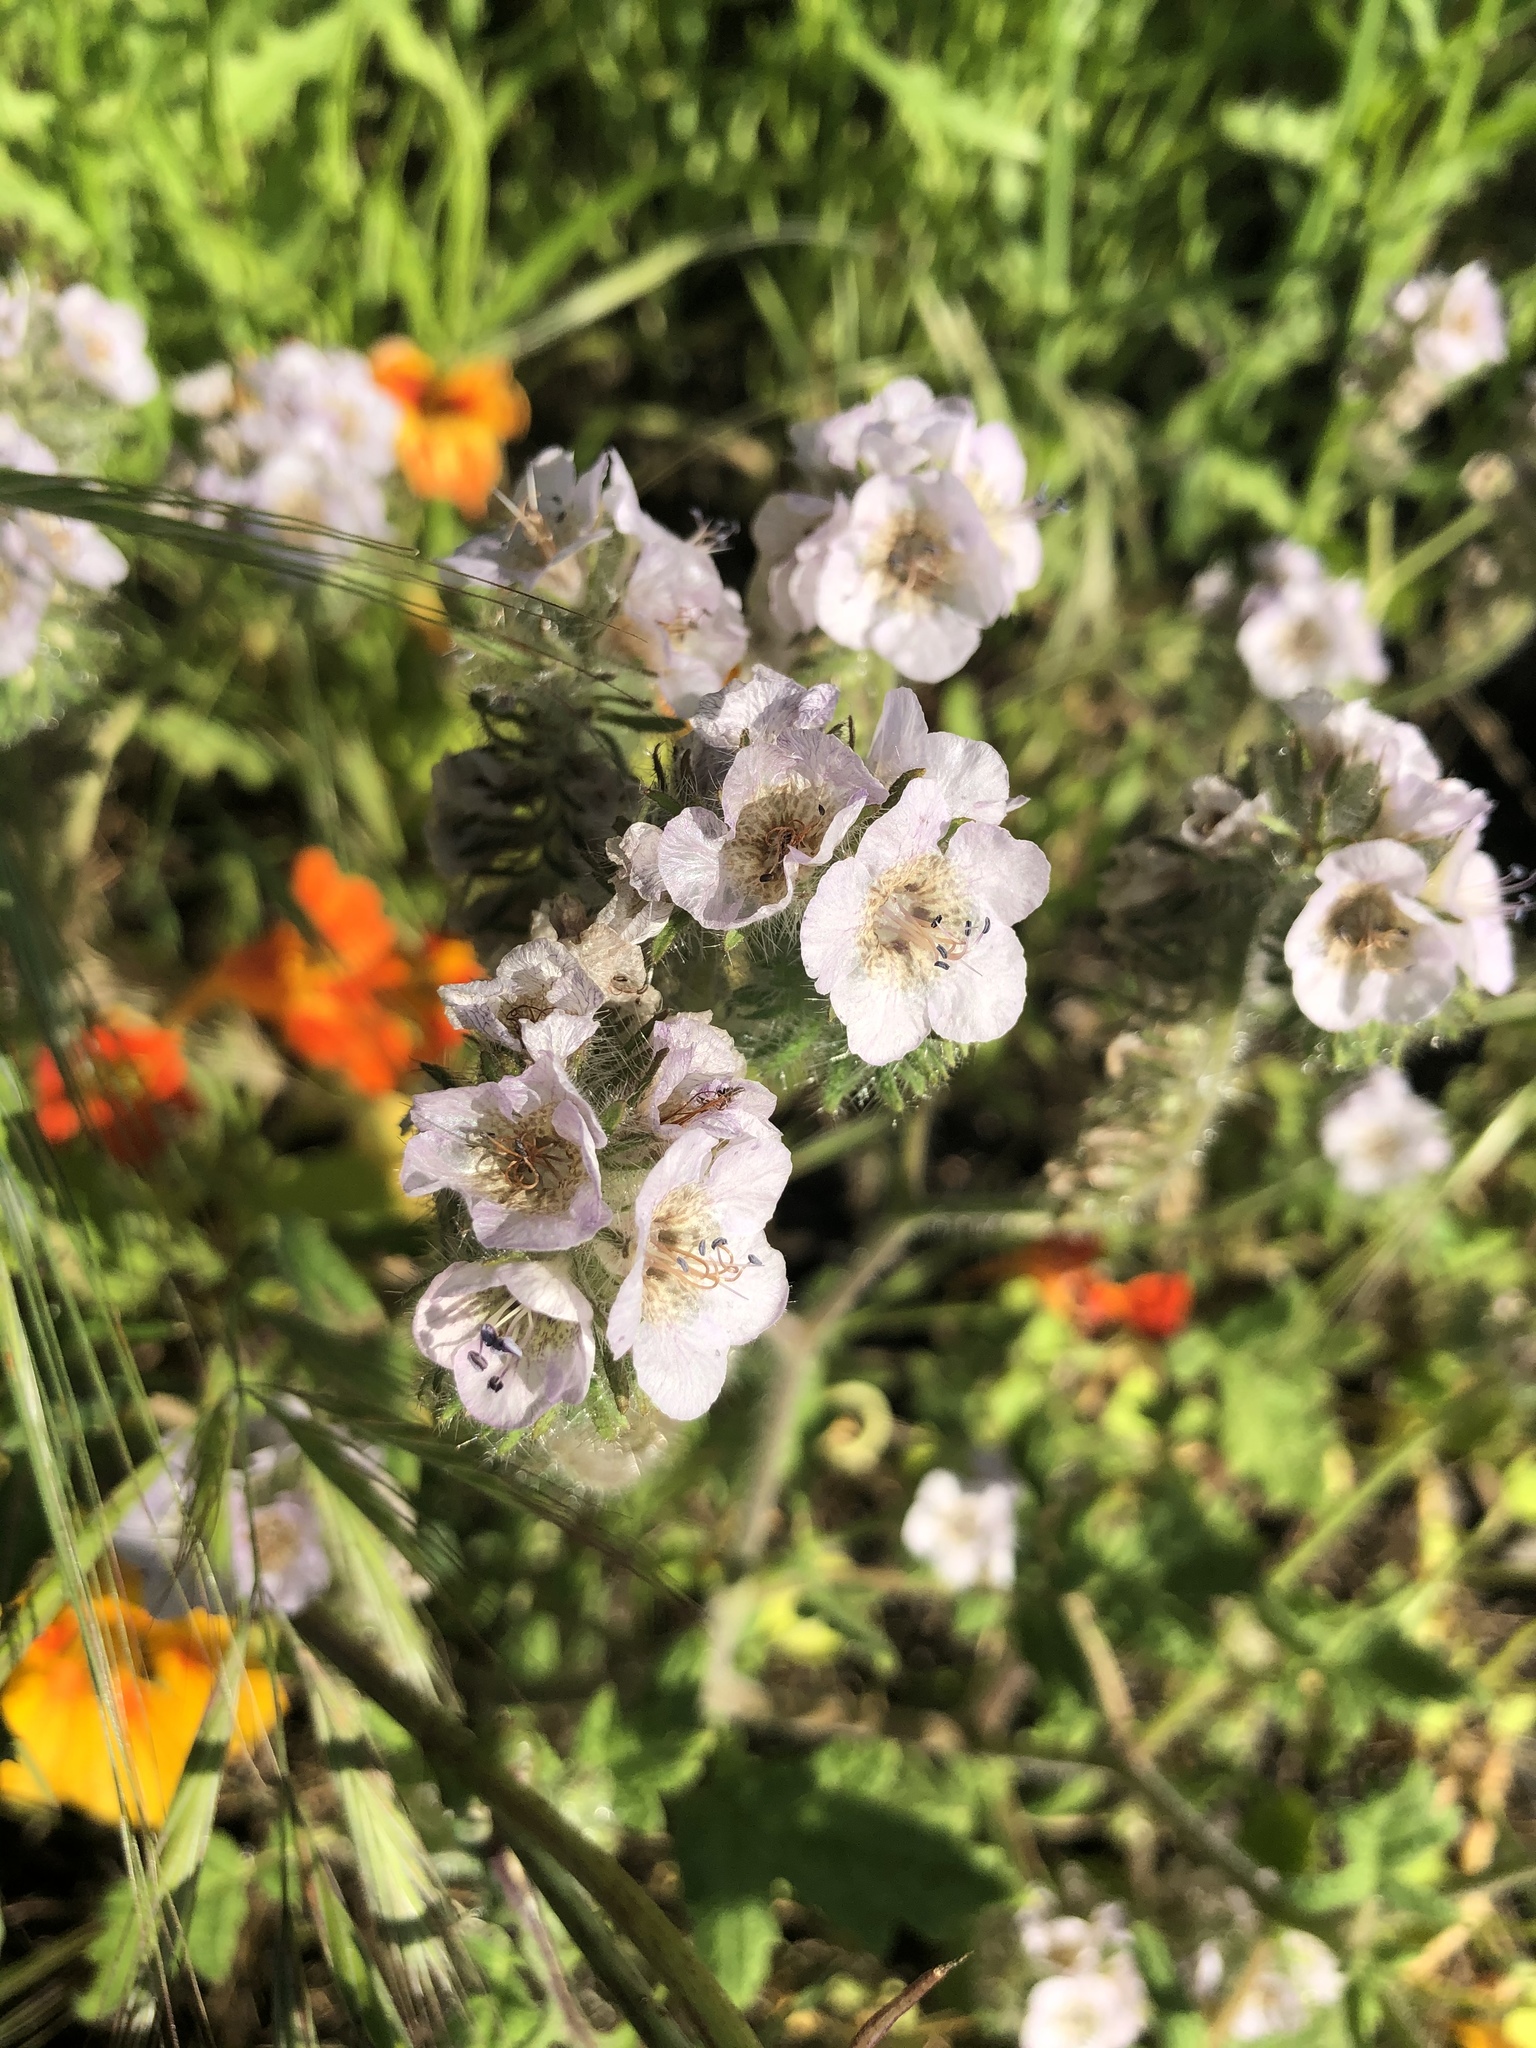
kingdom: Plantae
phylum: Tracheophyta
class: Magnoliopsida
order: Boraginales
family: Hydrophyllaceae
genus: Phacelia
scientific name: Phacelia cicutaria
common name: Caterpillar phacelia
